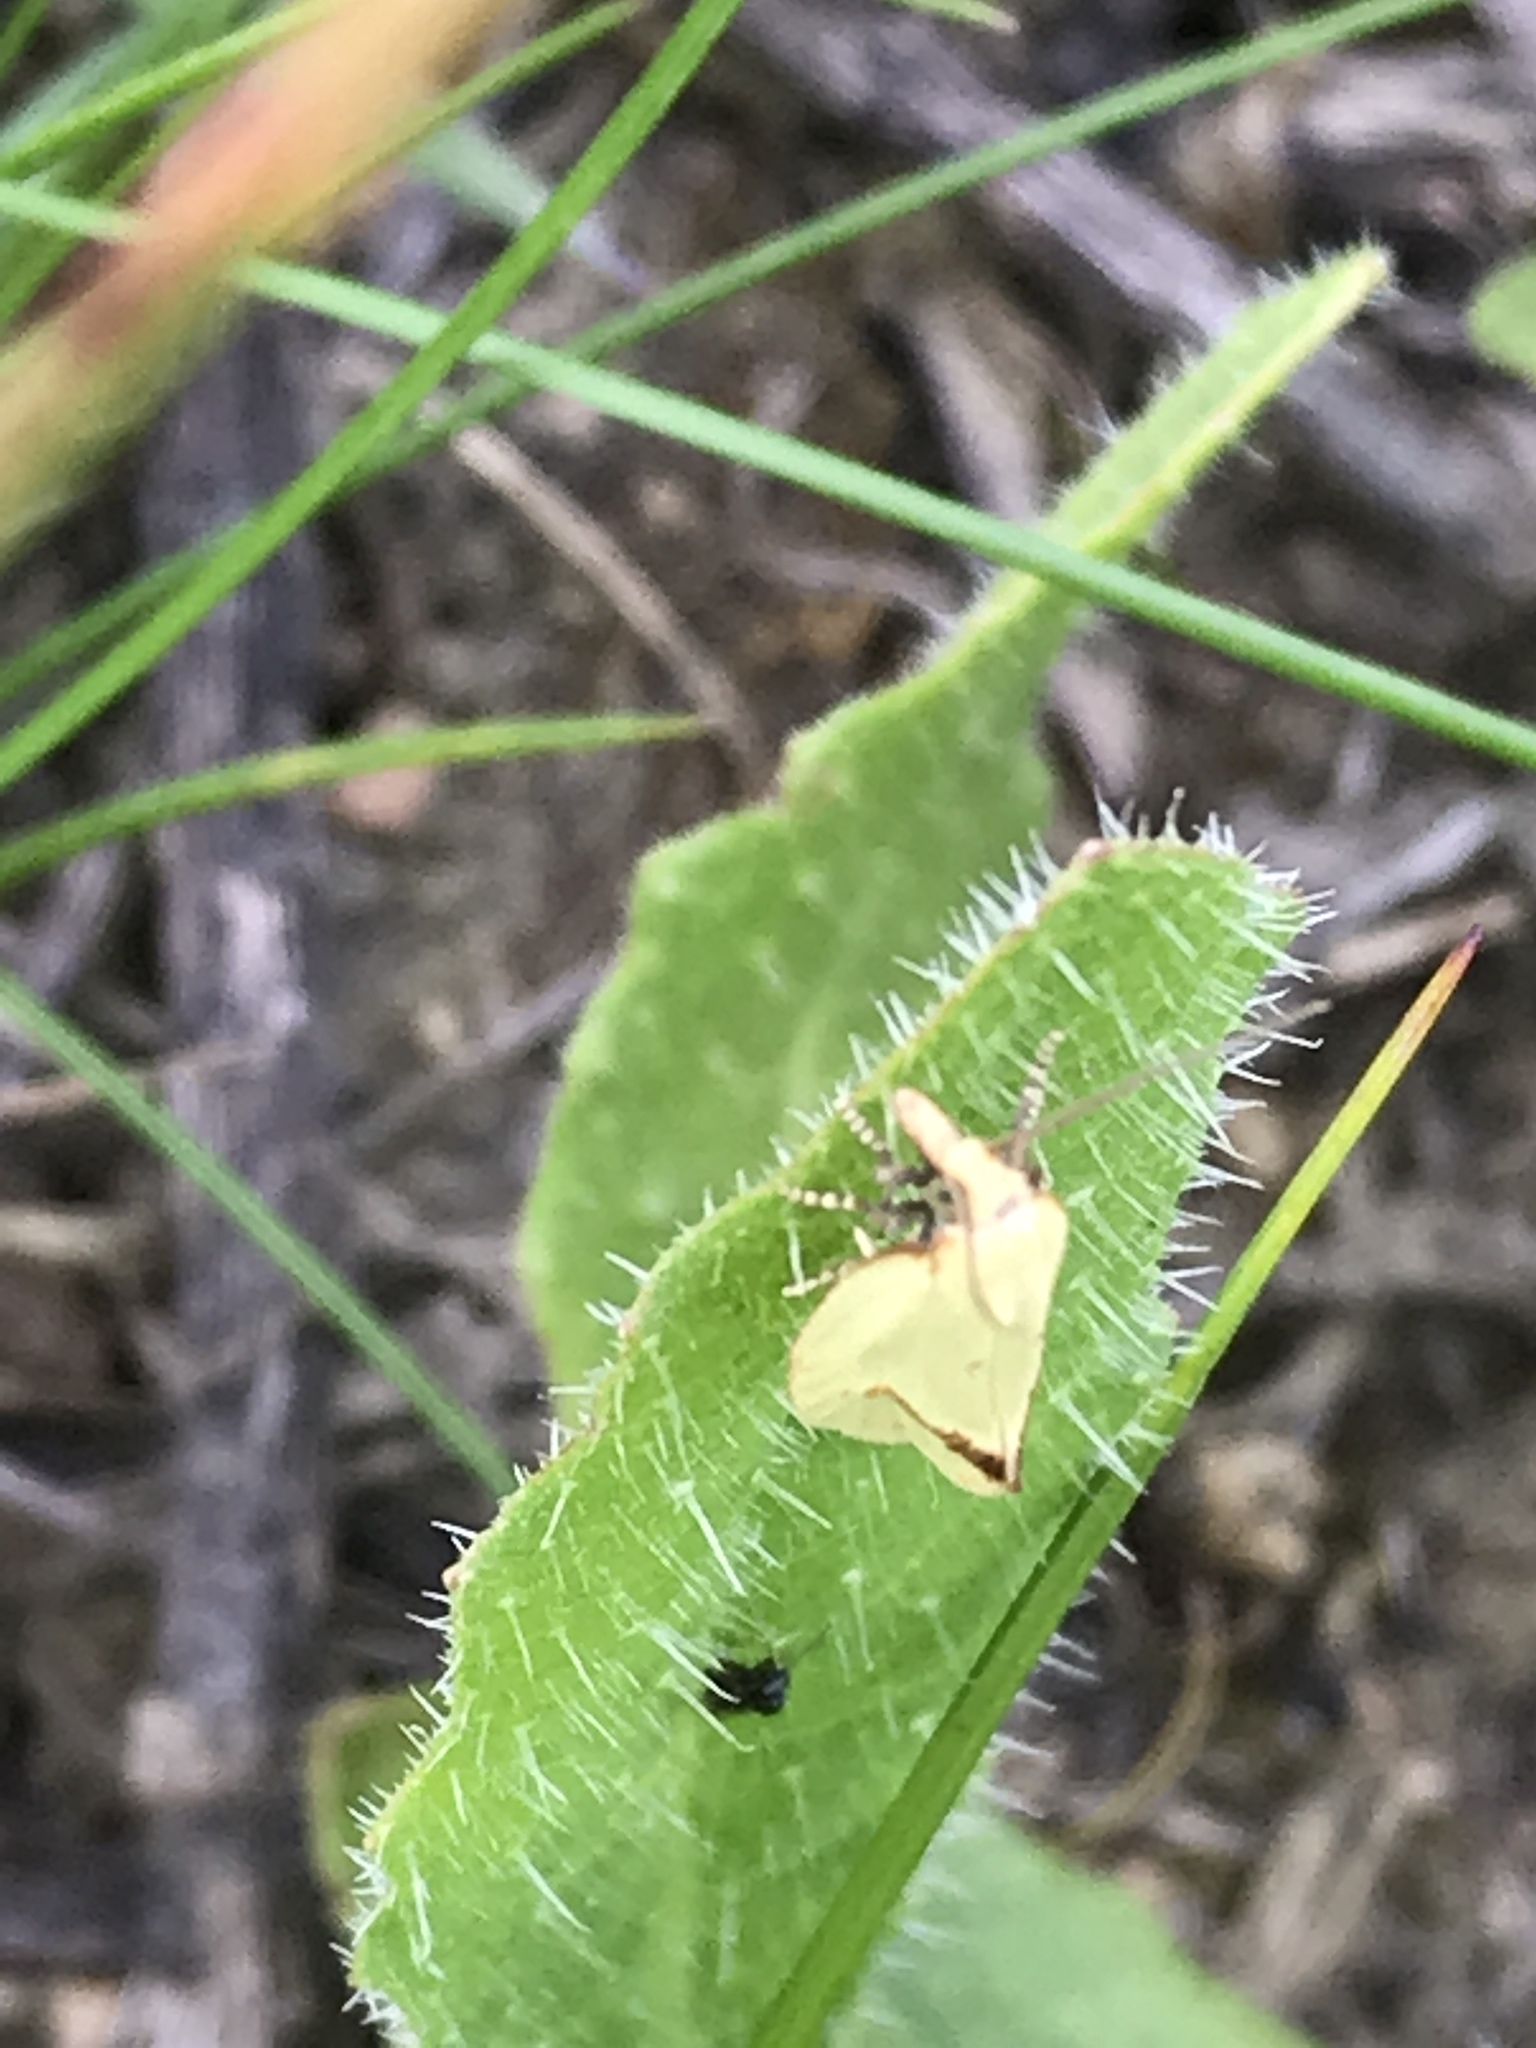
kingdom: Animalia
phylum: Arthropoda
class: Insecta
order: Lepidoptera
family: Tortricidae
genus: Agapeta
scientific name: Agapeta hamana
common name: Common yellow conch
